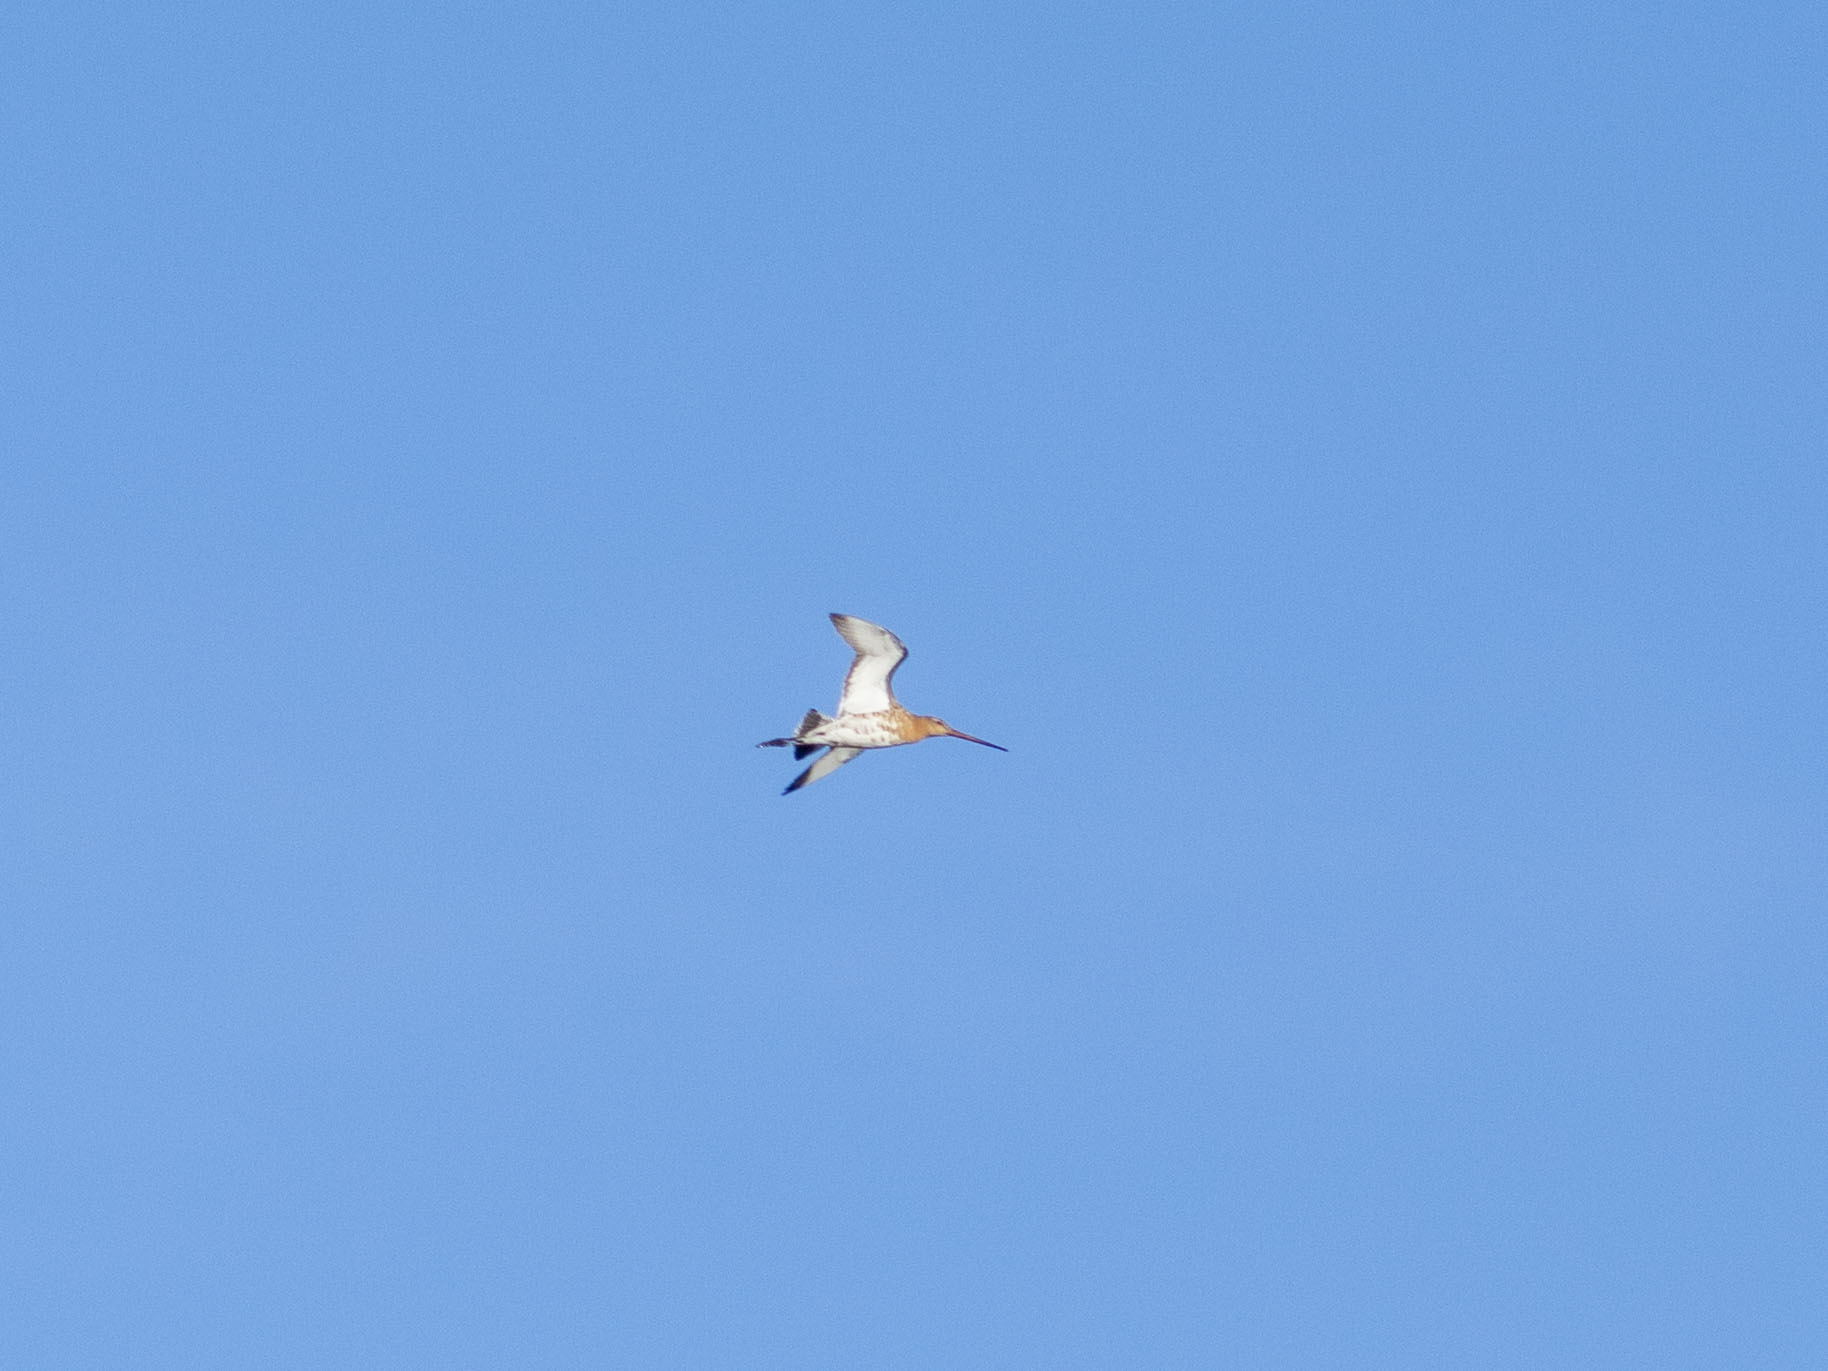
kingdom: Animalia
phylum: Chordata
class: Aves
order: Charadriiformes
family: Scolopacidae
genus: Limosa
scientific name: Limosa limosa
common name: Black-tailed godwit
